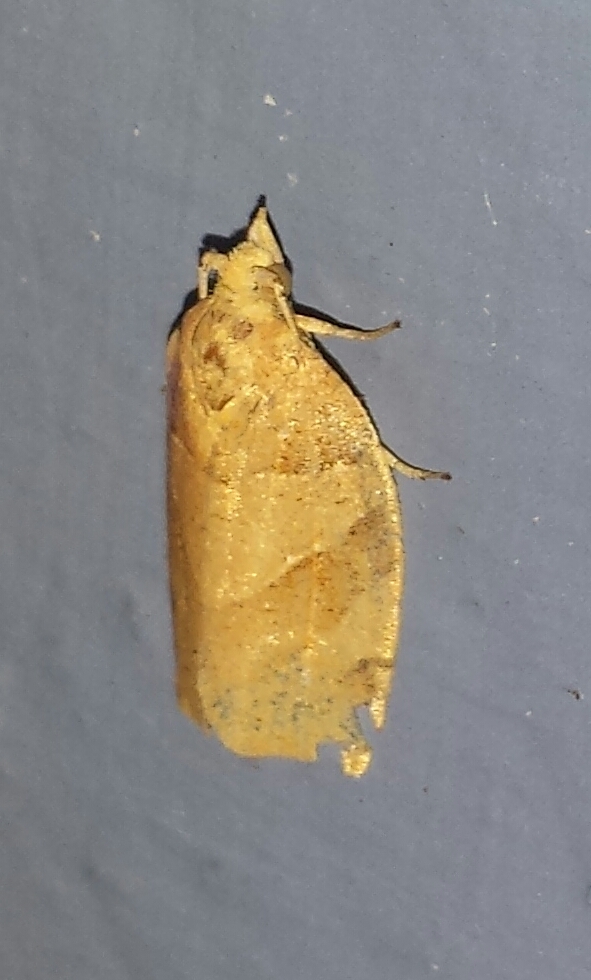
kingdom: Animalia
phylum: Arthropoda
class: Insecta
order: Lepidoptera
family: Tortricidae
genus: Pandemis
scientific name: Pandemis lamprosana
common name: Woodgrain leafroller moth
